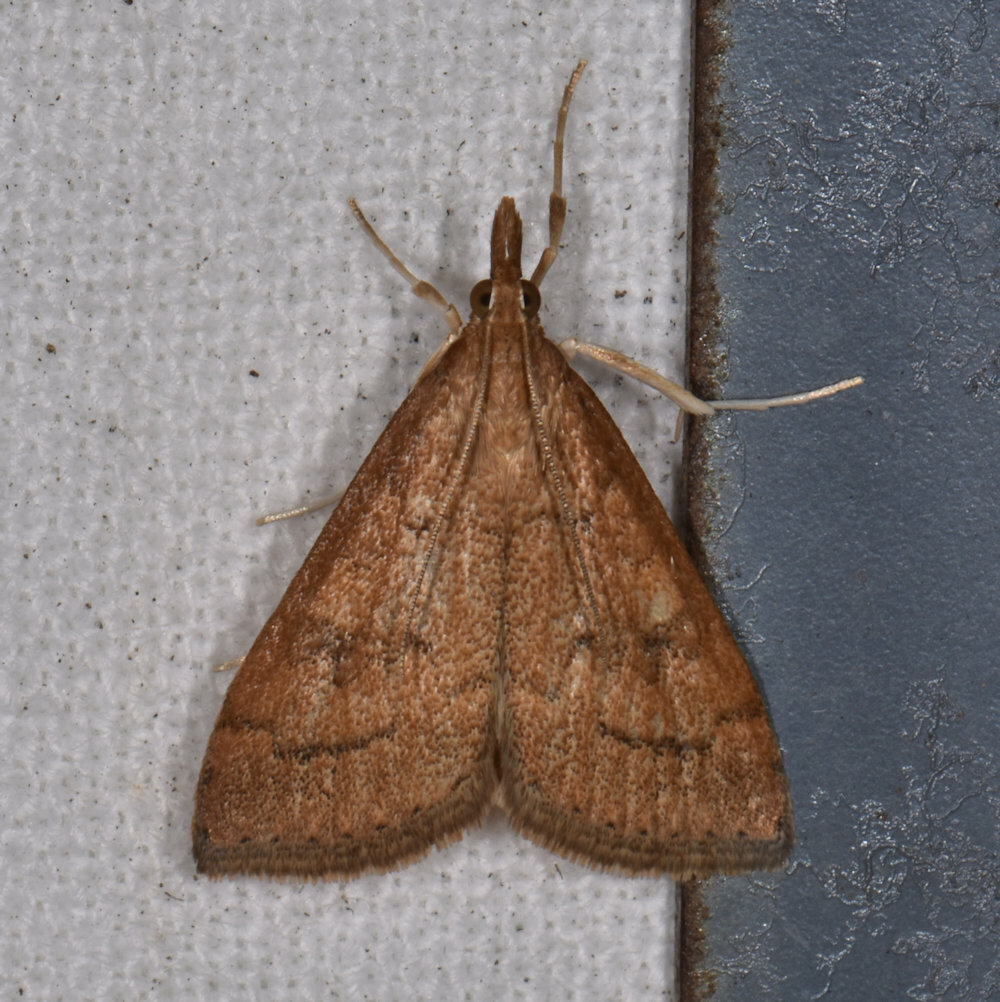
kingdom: Animalia
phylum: Arthropoda
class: Insecta
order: Lepidoptera
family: Crambidae
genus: Udea
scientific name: Udea rubigalis
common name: Celery leaftier moth
